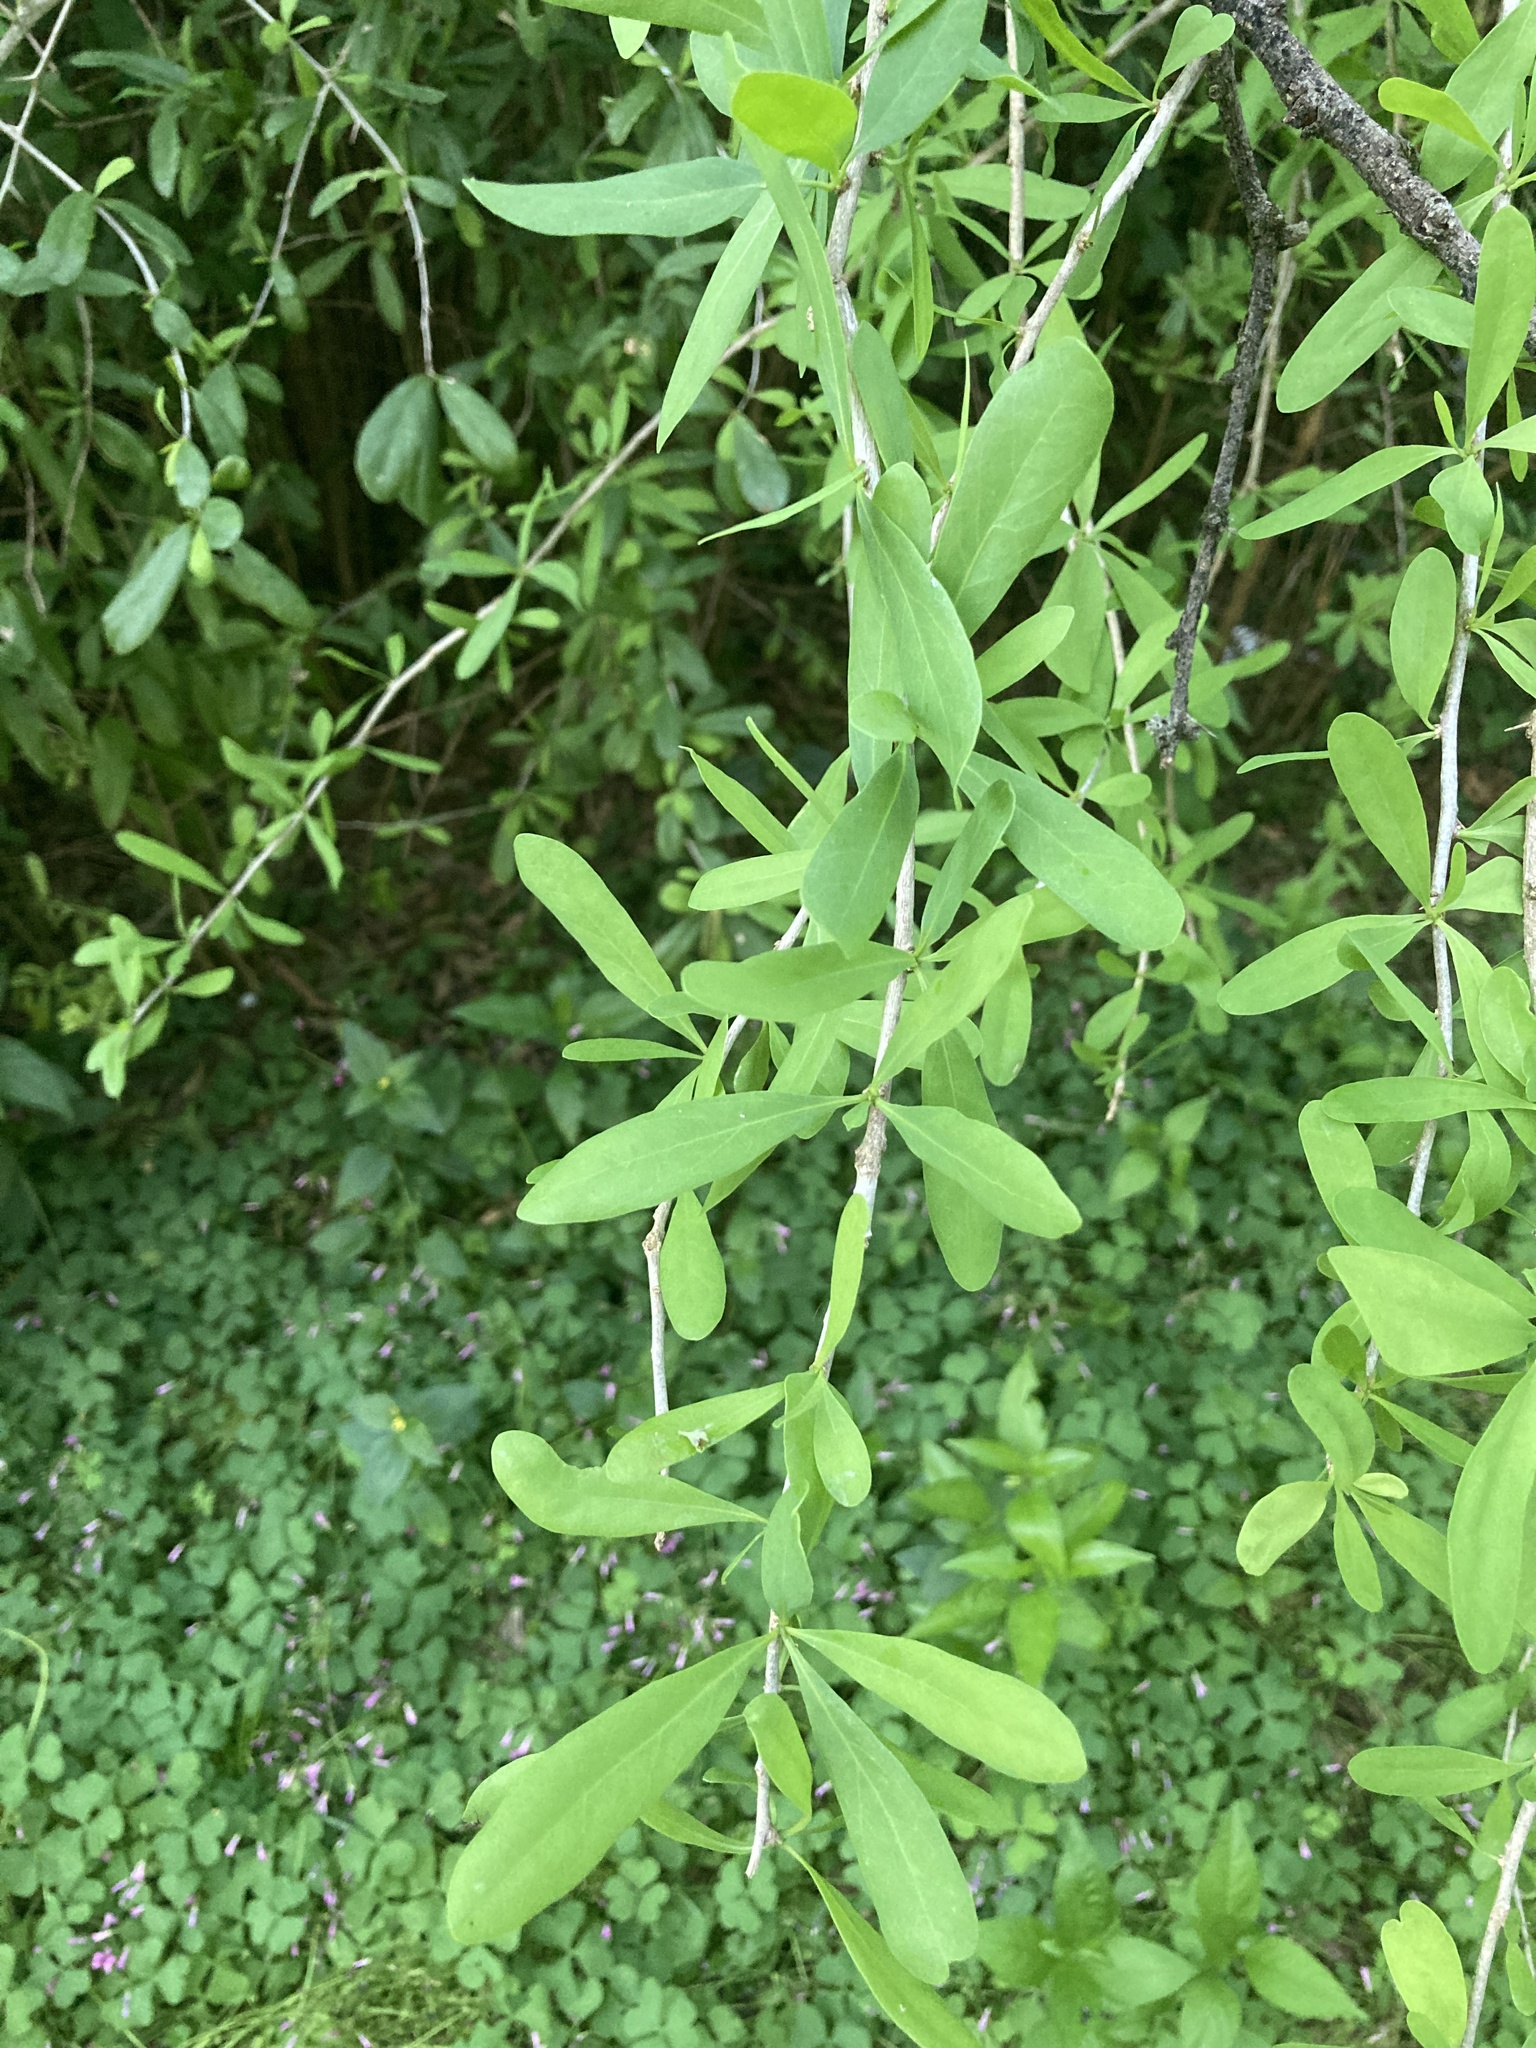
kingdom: Plantae
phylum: Tracheophyta
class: Magnoliopsida
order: Santalales
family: Cervantesiaceae
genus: Acanthosyris
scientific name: Acanthosyris spinescens
